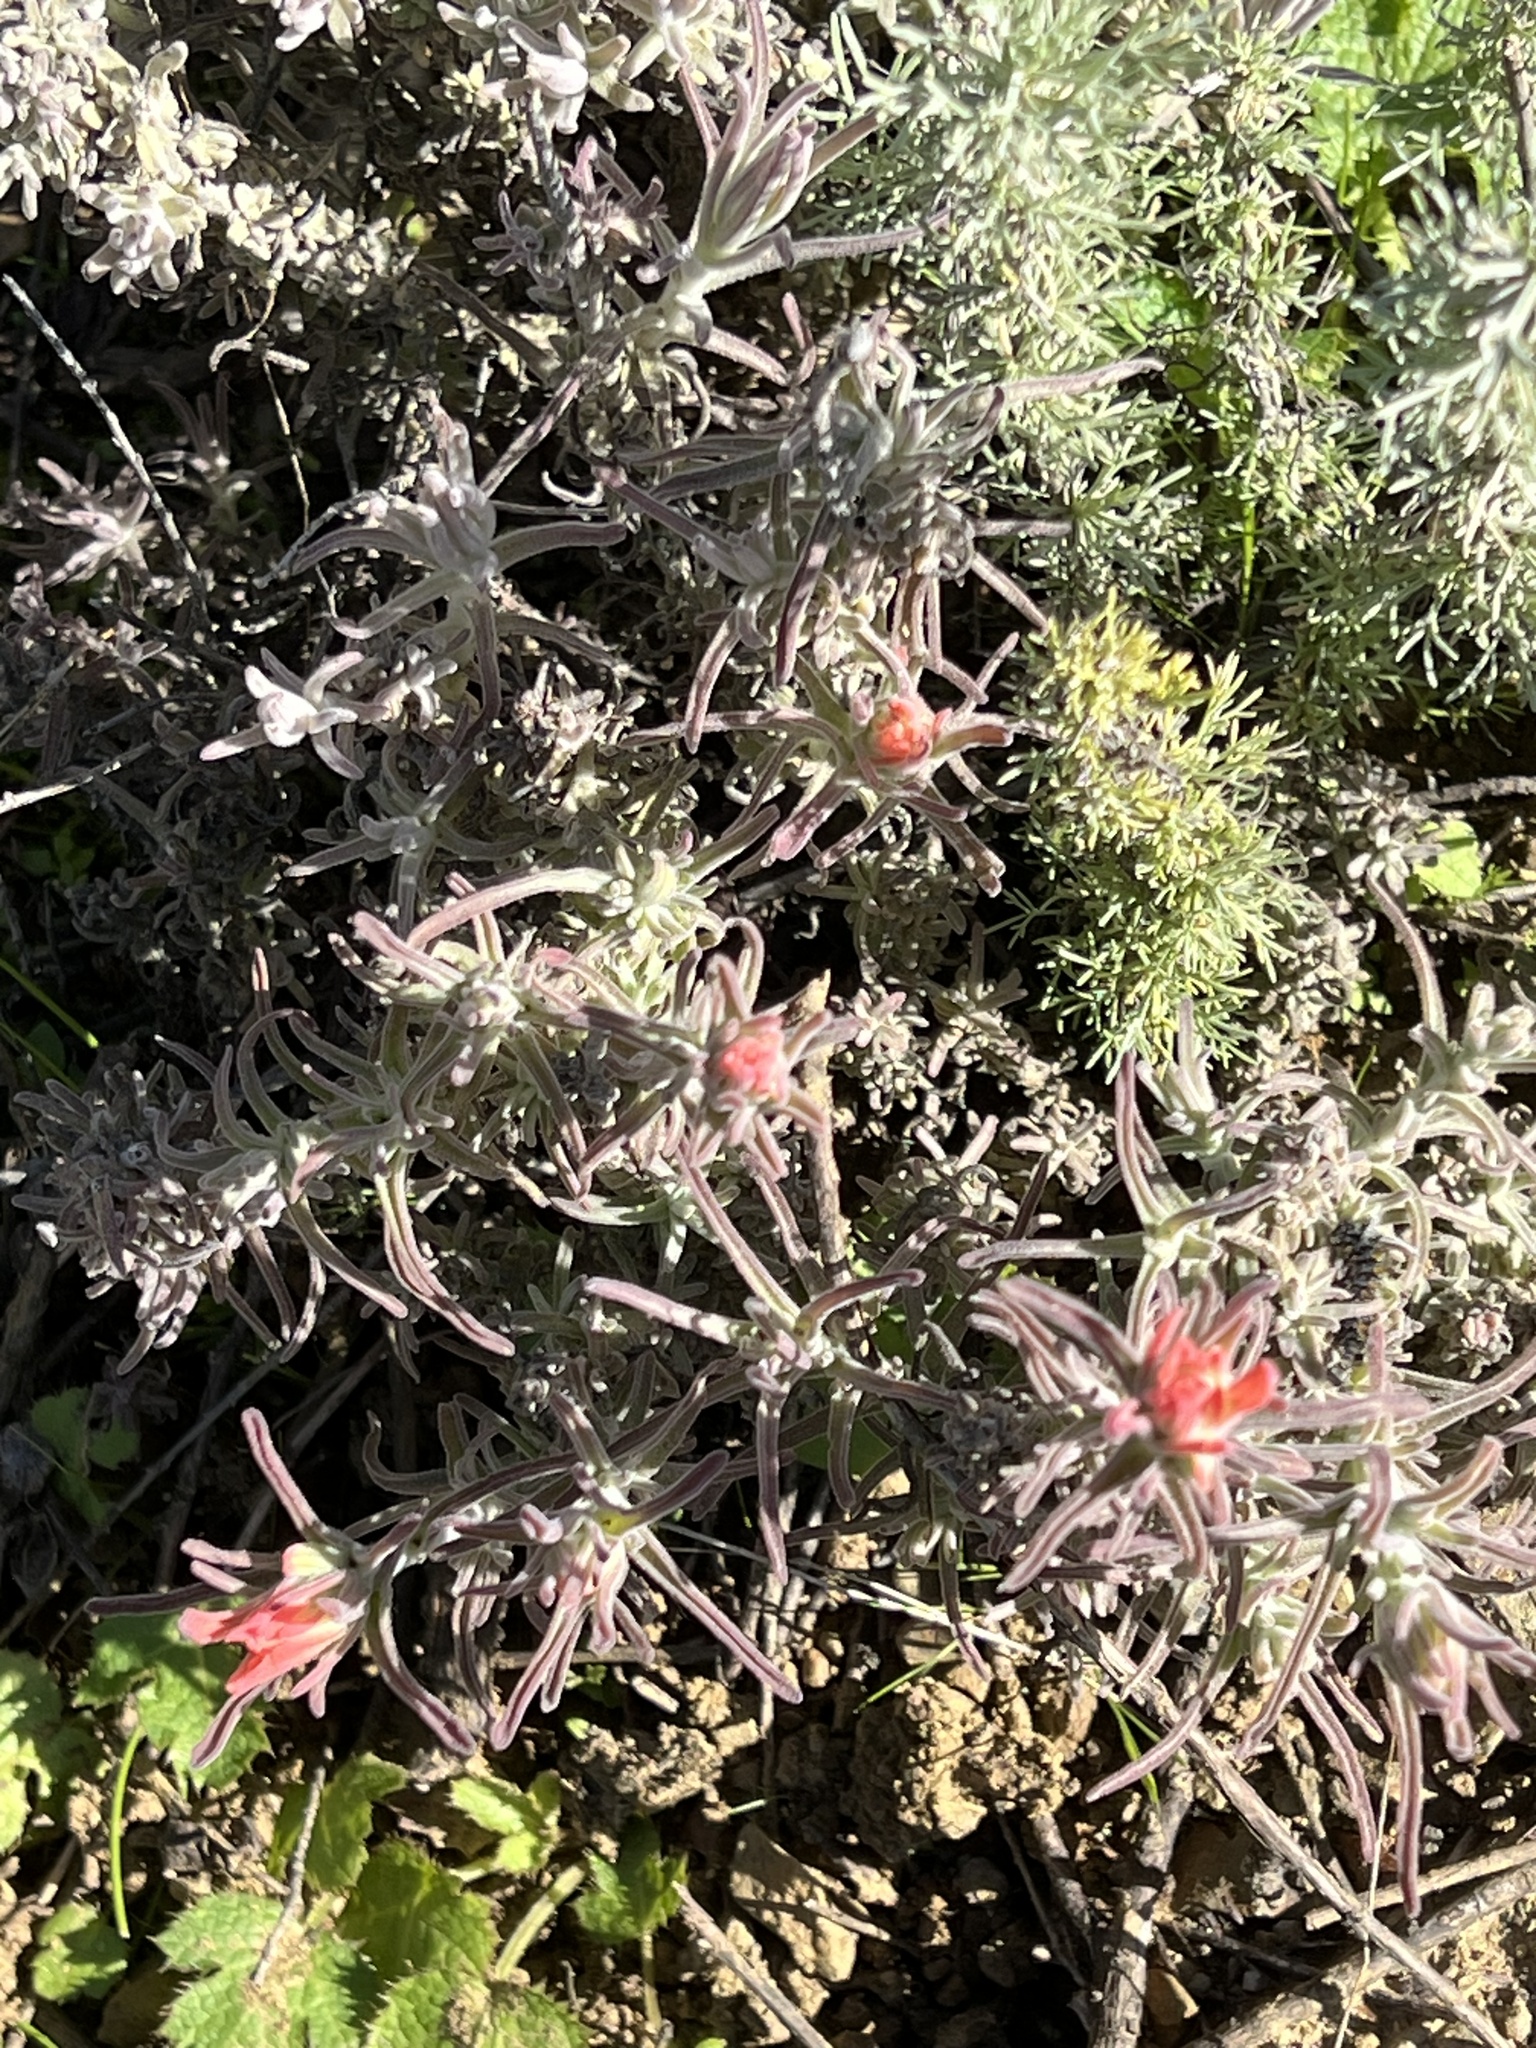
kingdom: Plantae
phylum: Tracheophyta
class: Magnoliopsida
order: Lamiales
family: Orobanchaceae
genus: Castilleja
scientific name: Castilleja foliolosa
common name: Woolly indian paintbrush
